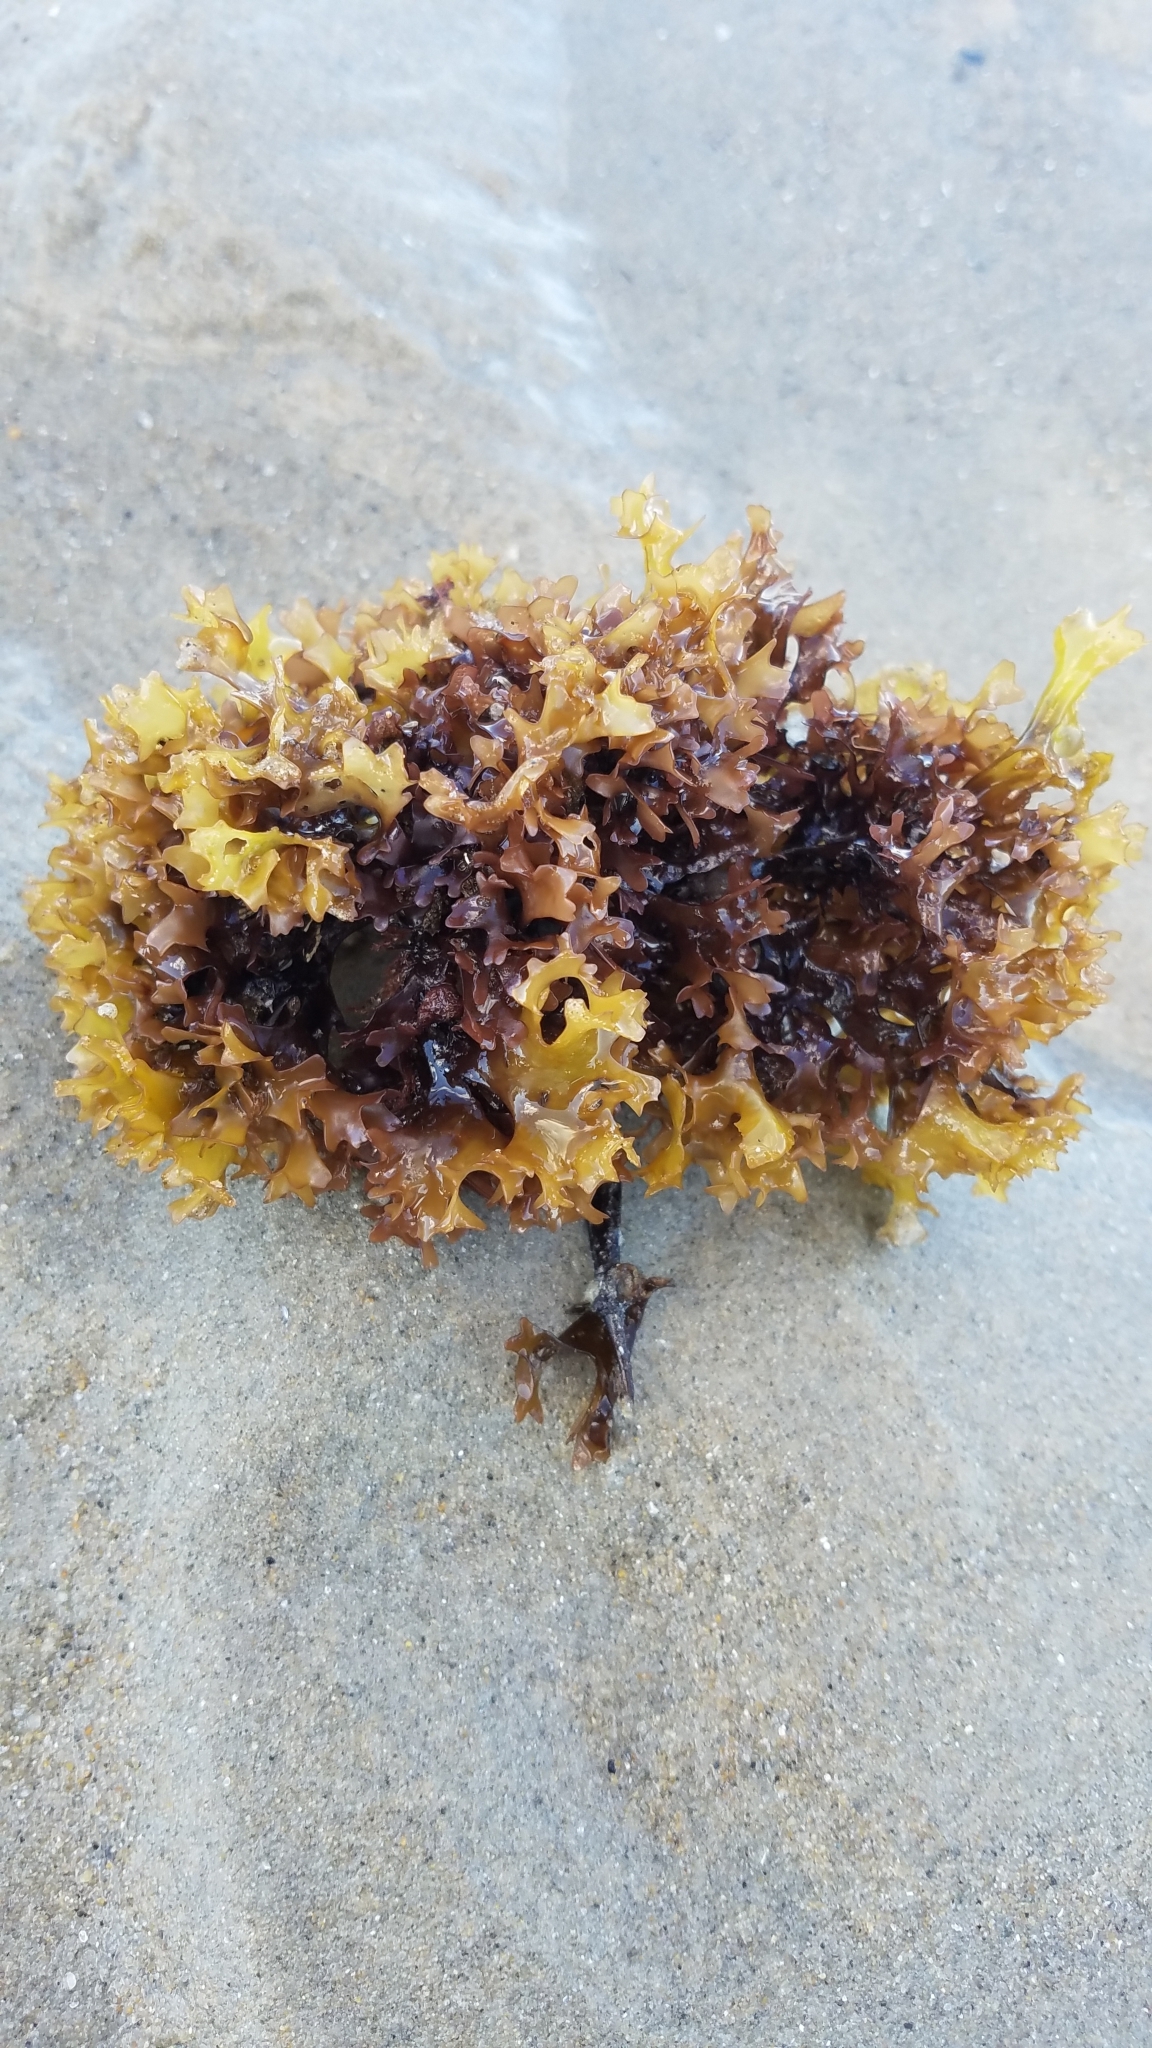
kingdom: Plantae
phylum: Rhodophyta
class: Florideophyceae
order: Gigartinales
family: Gigartinaceae
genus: Chondrus
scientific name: Chondrus crispus
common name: Carrageen
